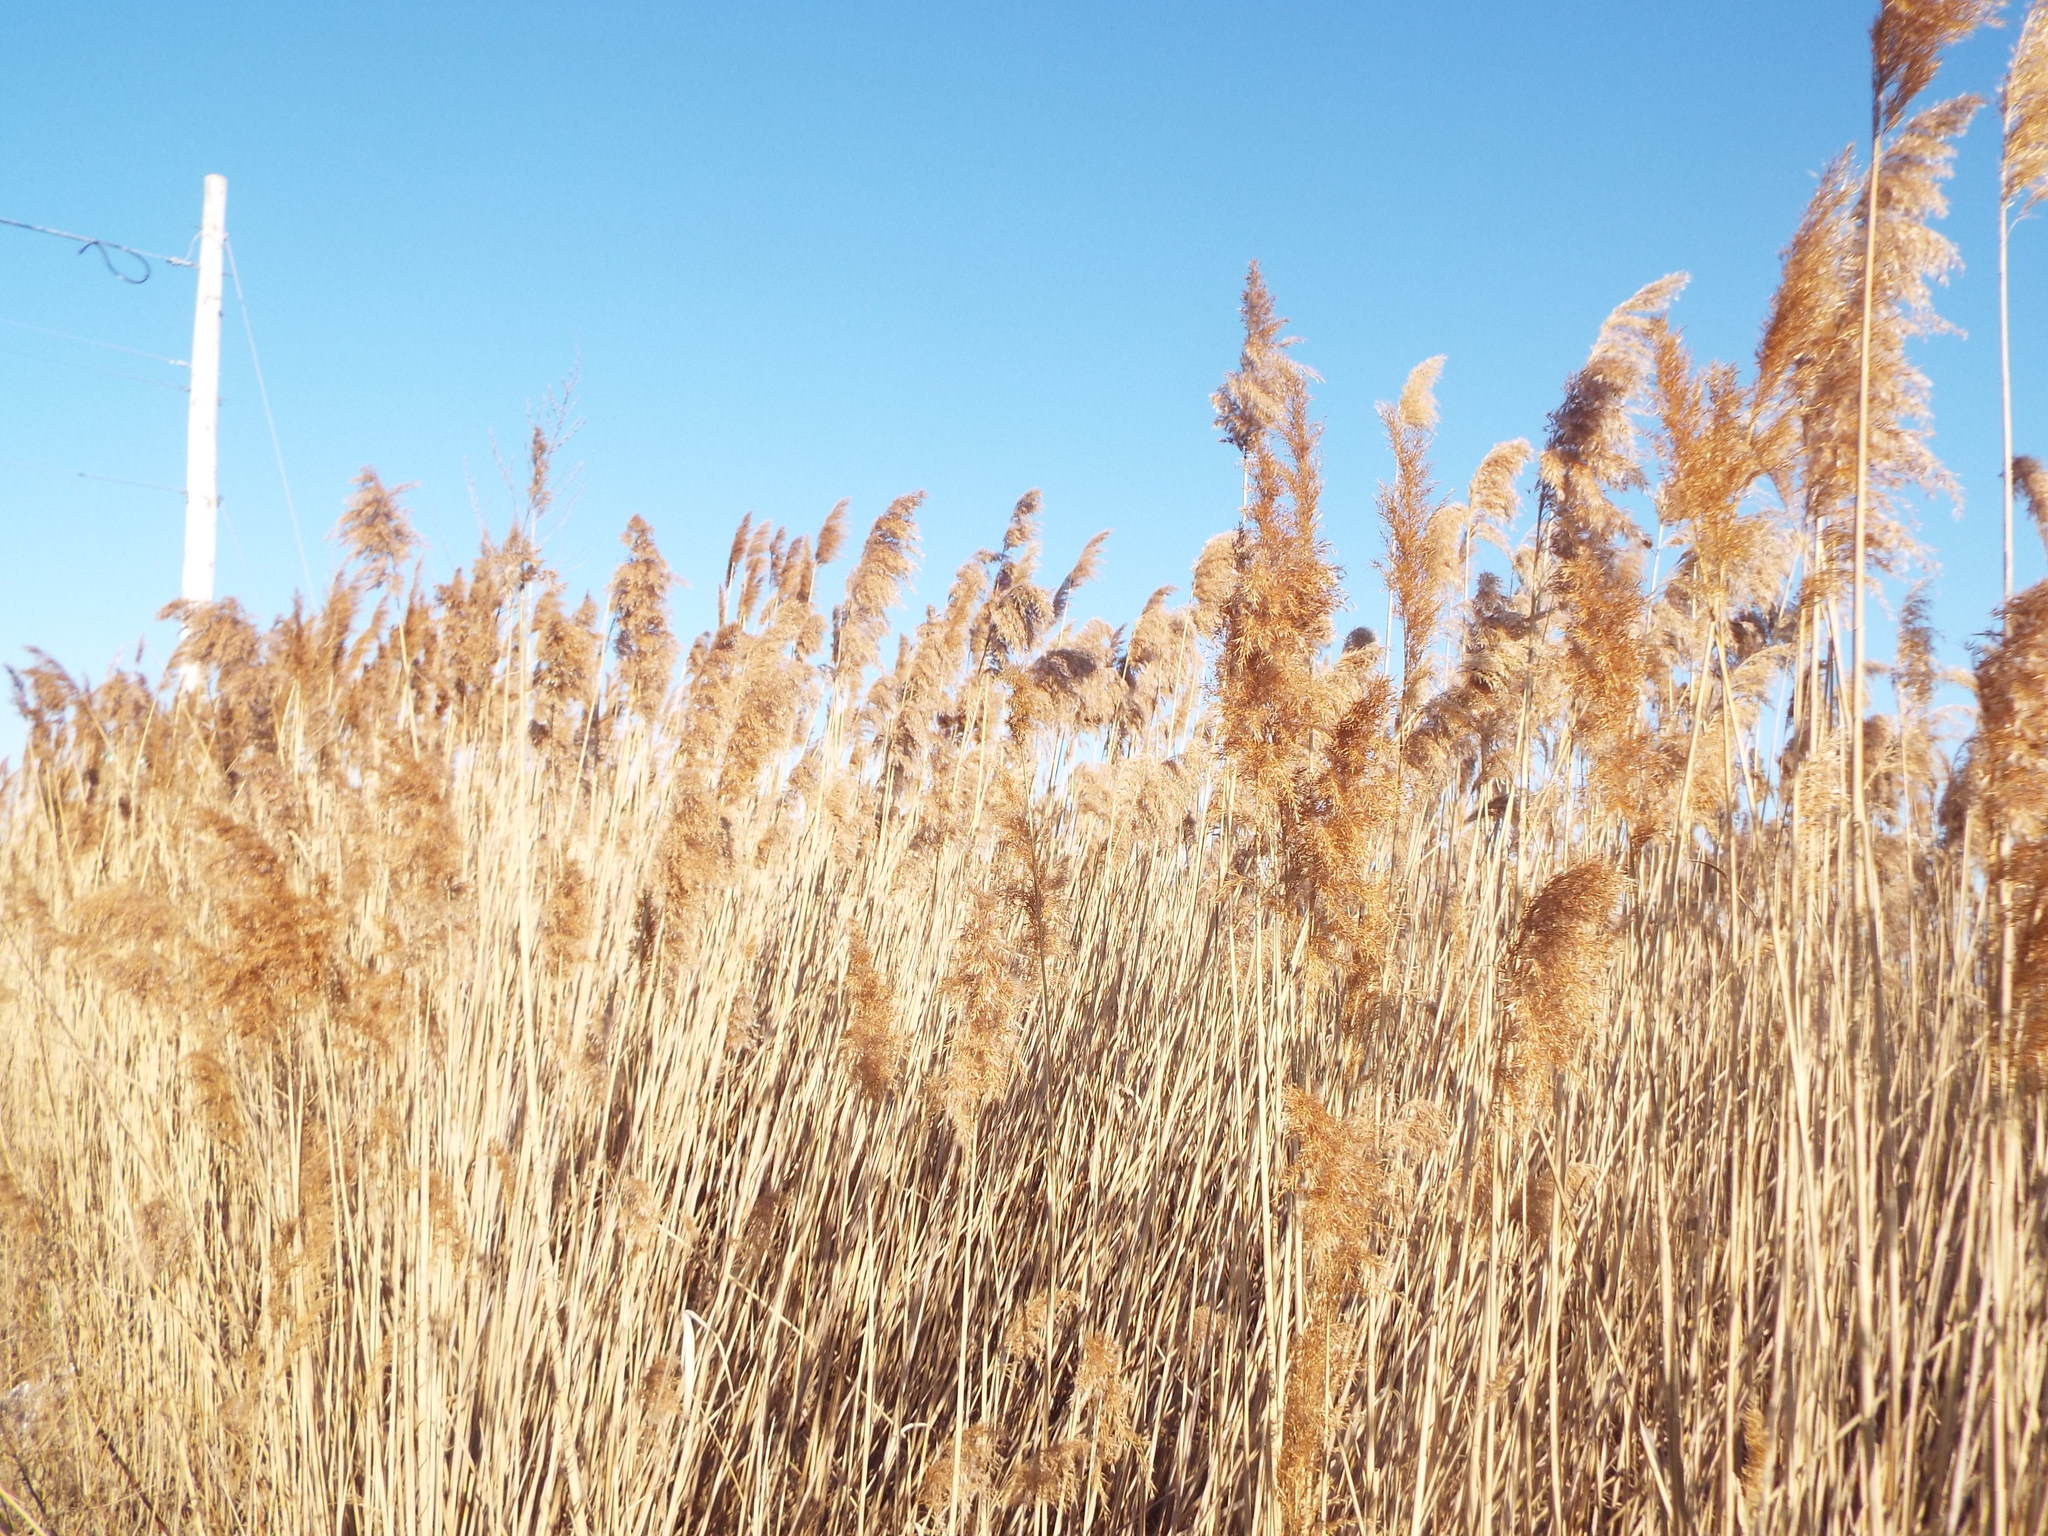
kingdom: Plantae
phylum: Tracheophyta
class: Liliopsida
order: Poales
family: Poaceae
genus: Phragmites
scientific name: Phragmites australis
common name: Common reed
